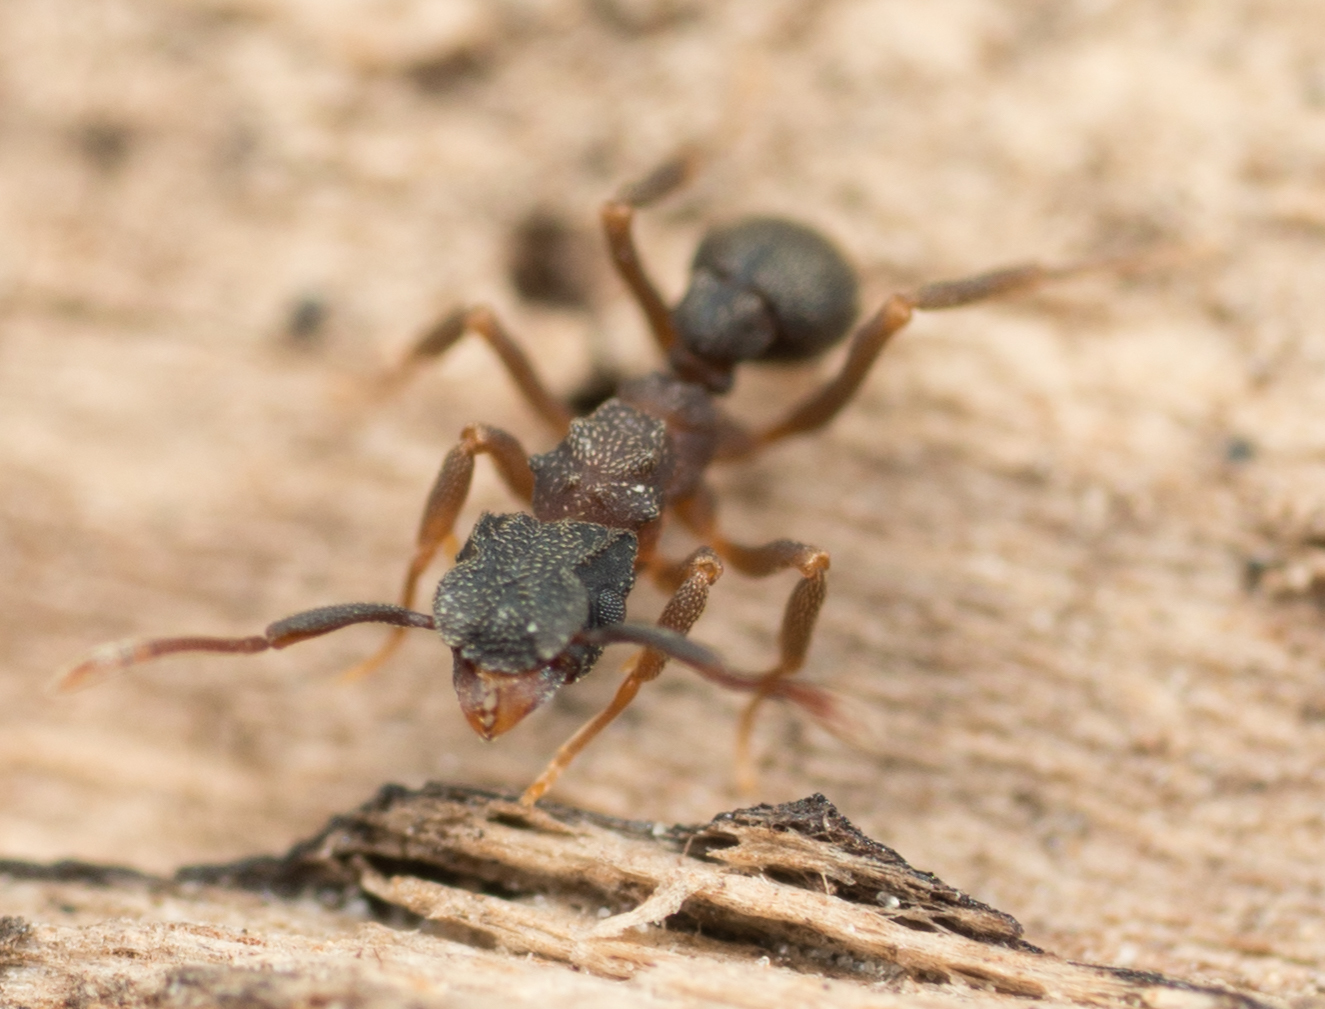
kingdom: Animalia
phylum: Arthropoda
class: Insecta
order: Hymenoptera
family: Formicidae
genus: Cyphomyrmex
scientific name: Cyphomyrmex rimosus
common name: Rimose fungus ant
